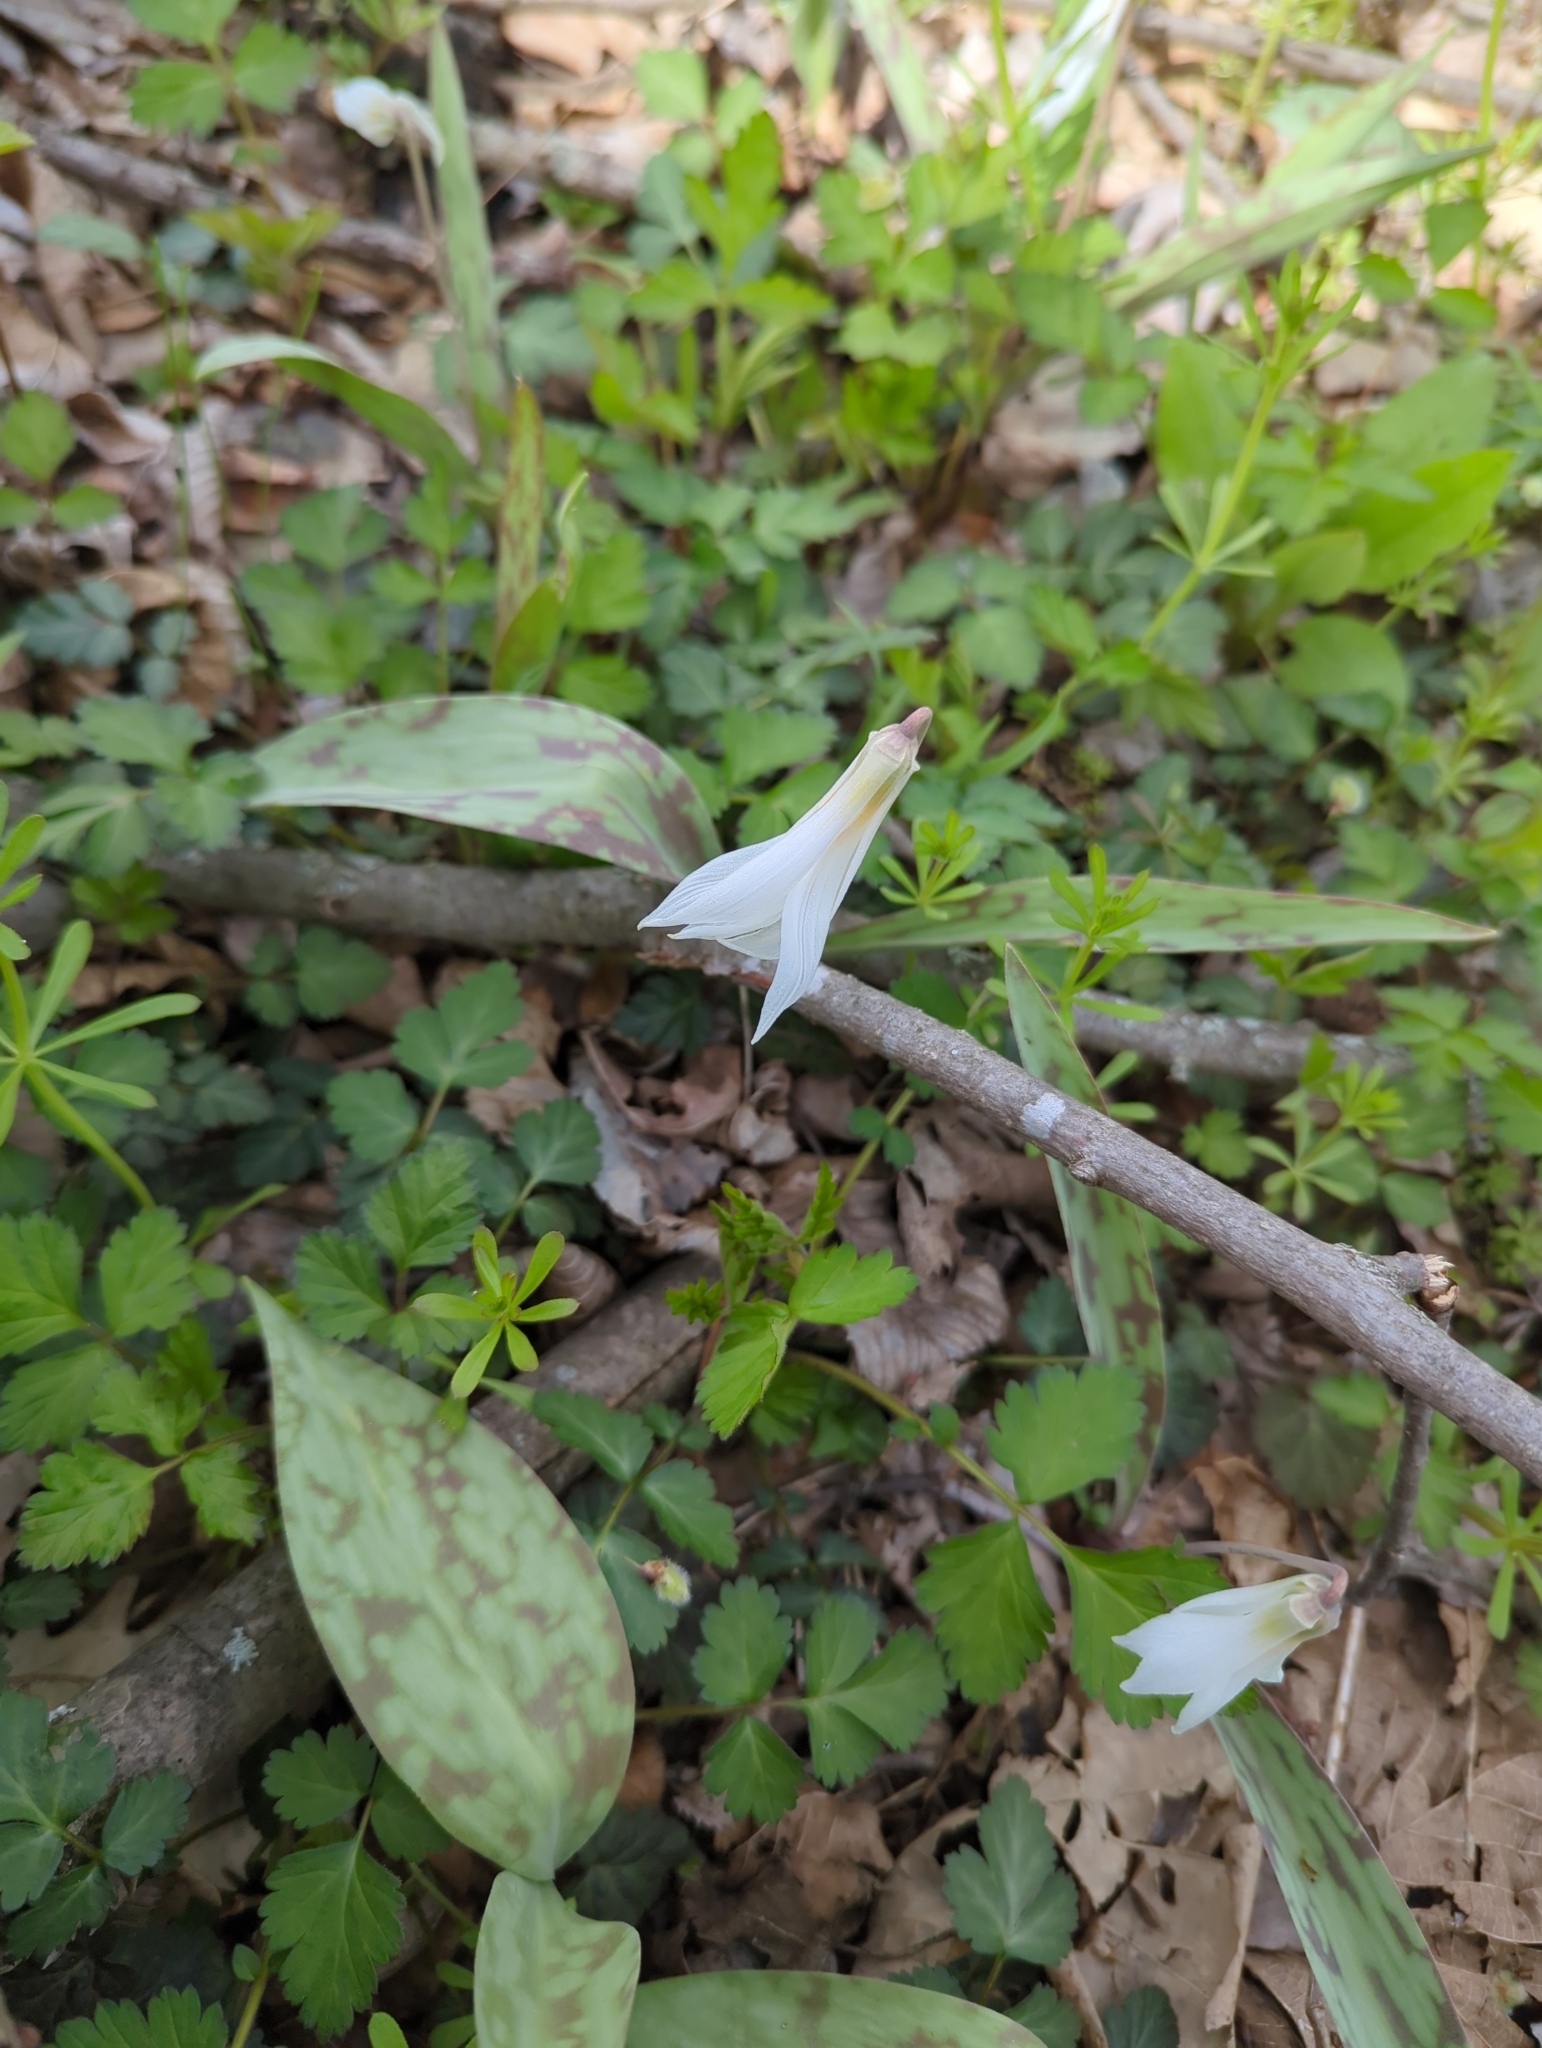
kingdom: Plantae
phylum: Tracheophyta
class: Liliopsida
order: Liliales
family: Liliaceae
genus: Erythronium
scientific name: Erythronium albidum
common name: White trout-lily
